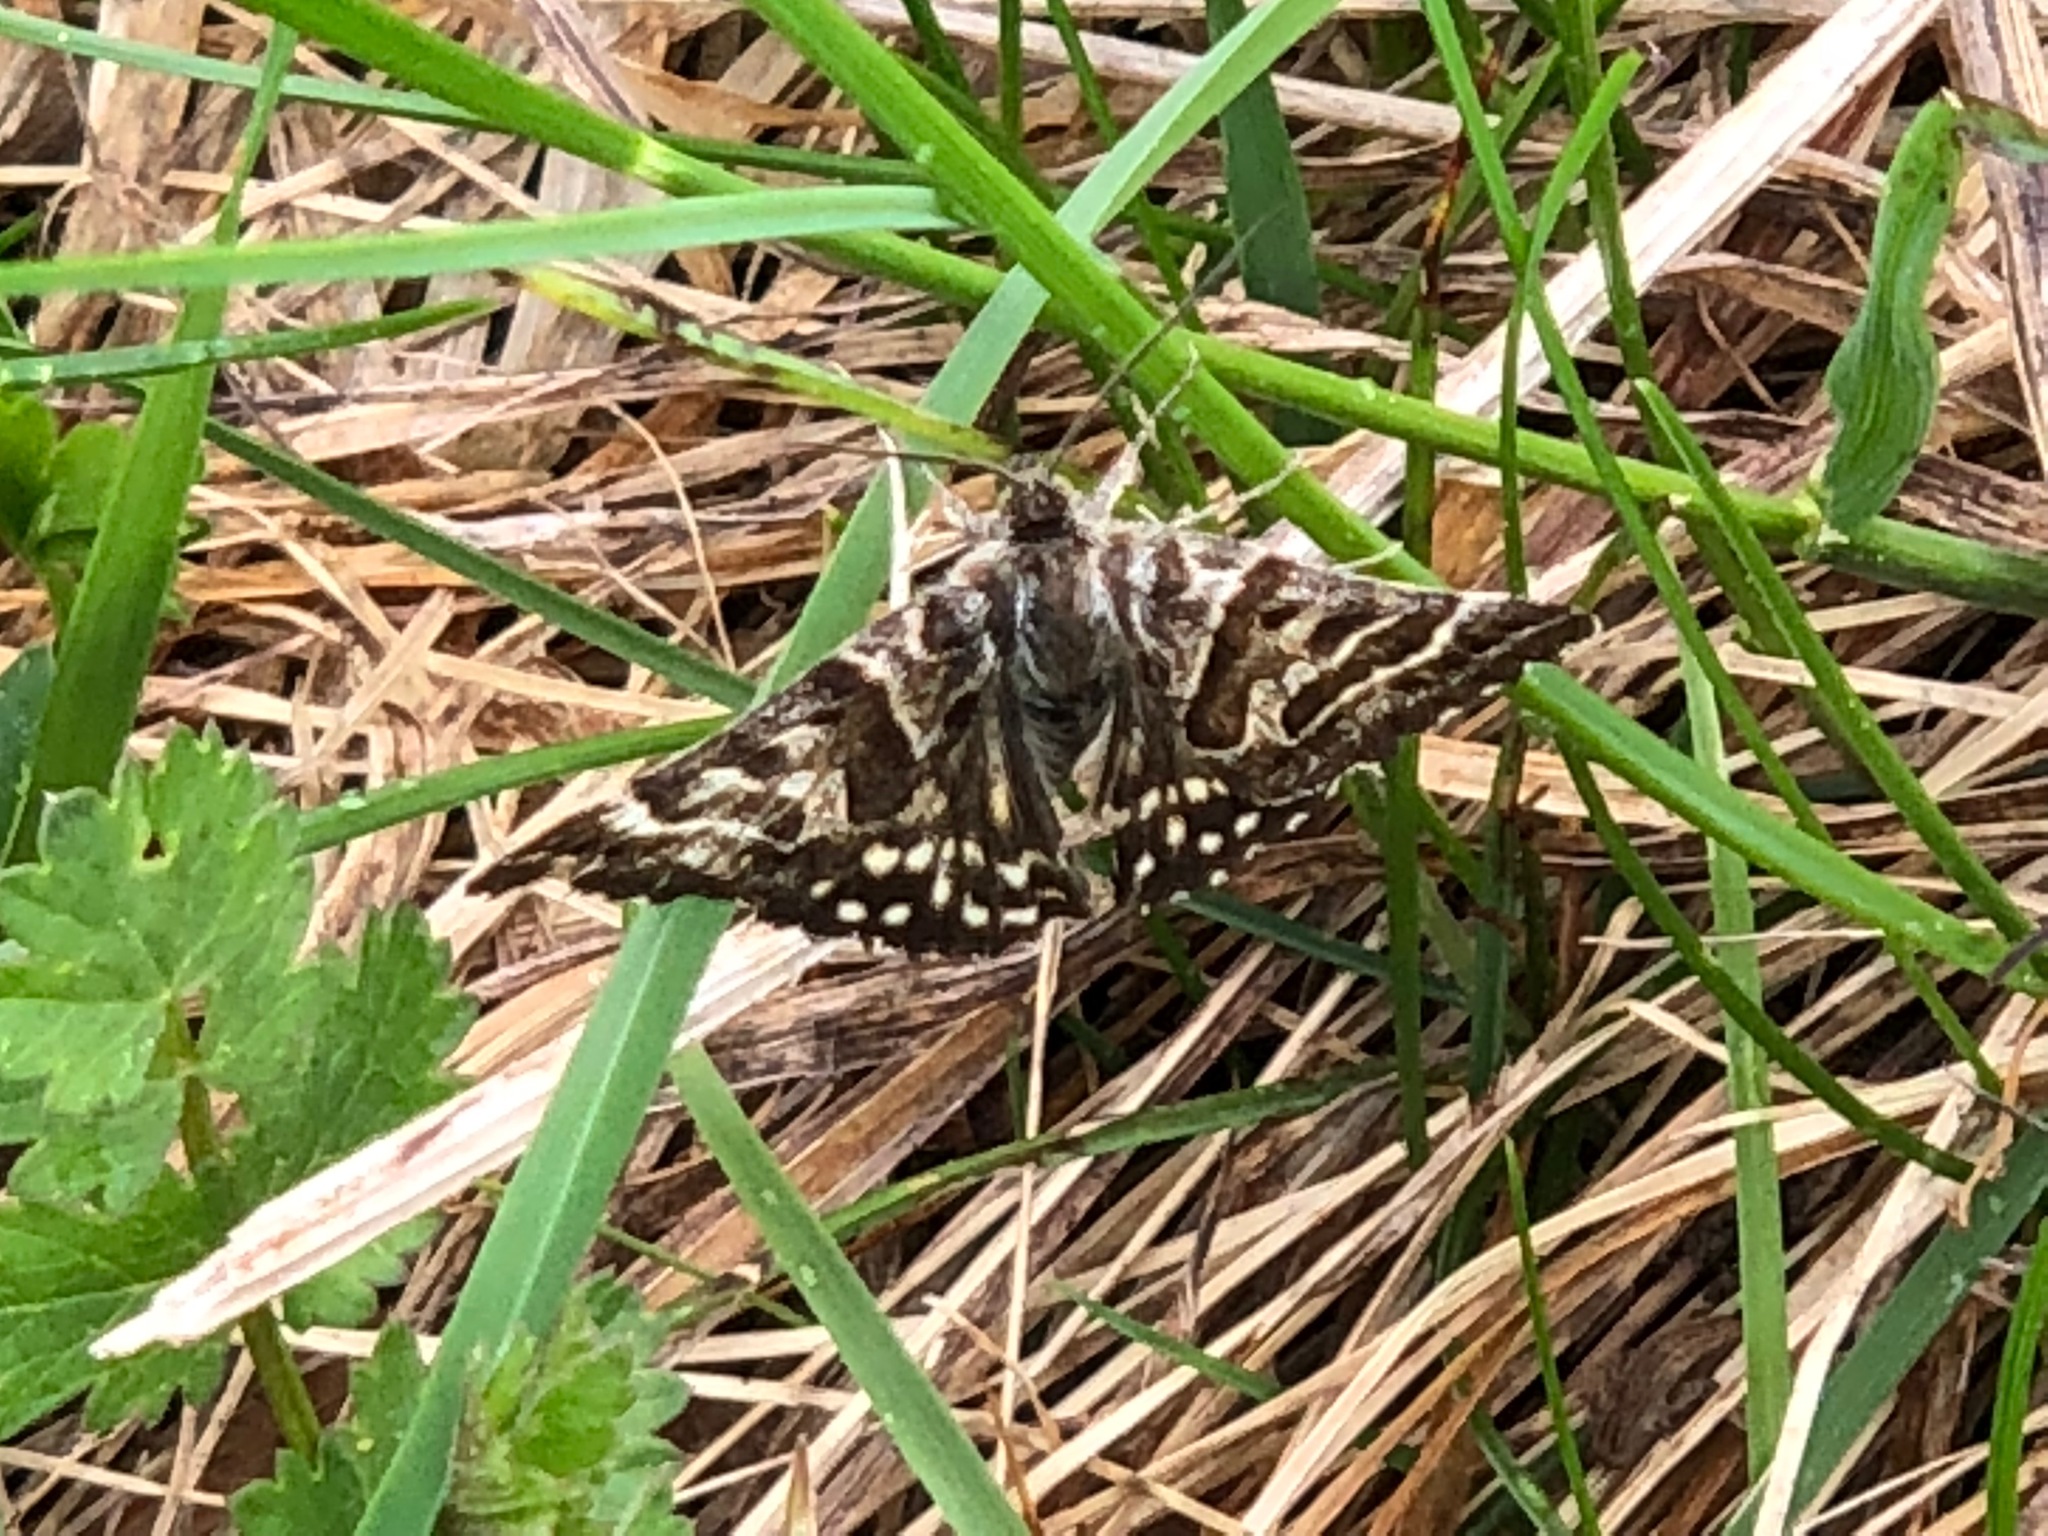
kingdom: Animalia
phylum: Arthropoda
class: Insecta
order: Lepidoptera
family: Erebidae
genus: Callistege
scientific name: Callistege mi
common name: Mother shipton
